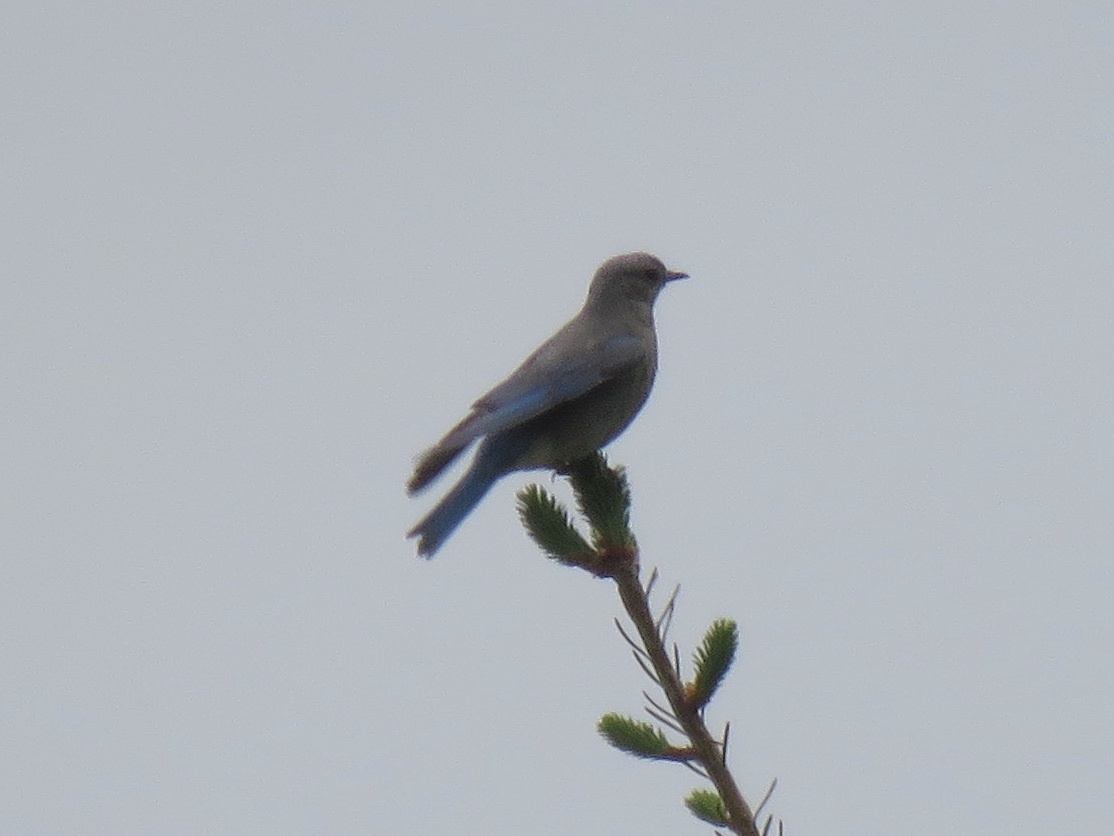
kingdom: Animalia
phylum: Chordata
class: Aves
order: Passeriformes
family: Turdidae
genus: Sialia
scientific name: Sialia currucoides
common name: Mountain bluebird
